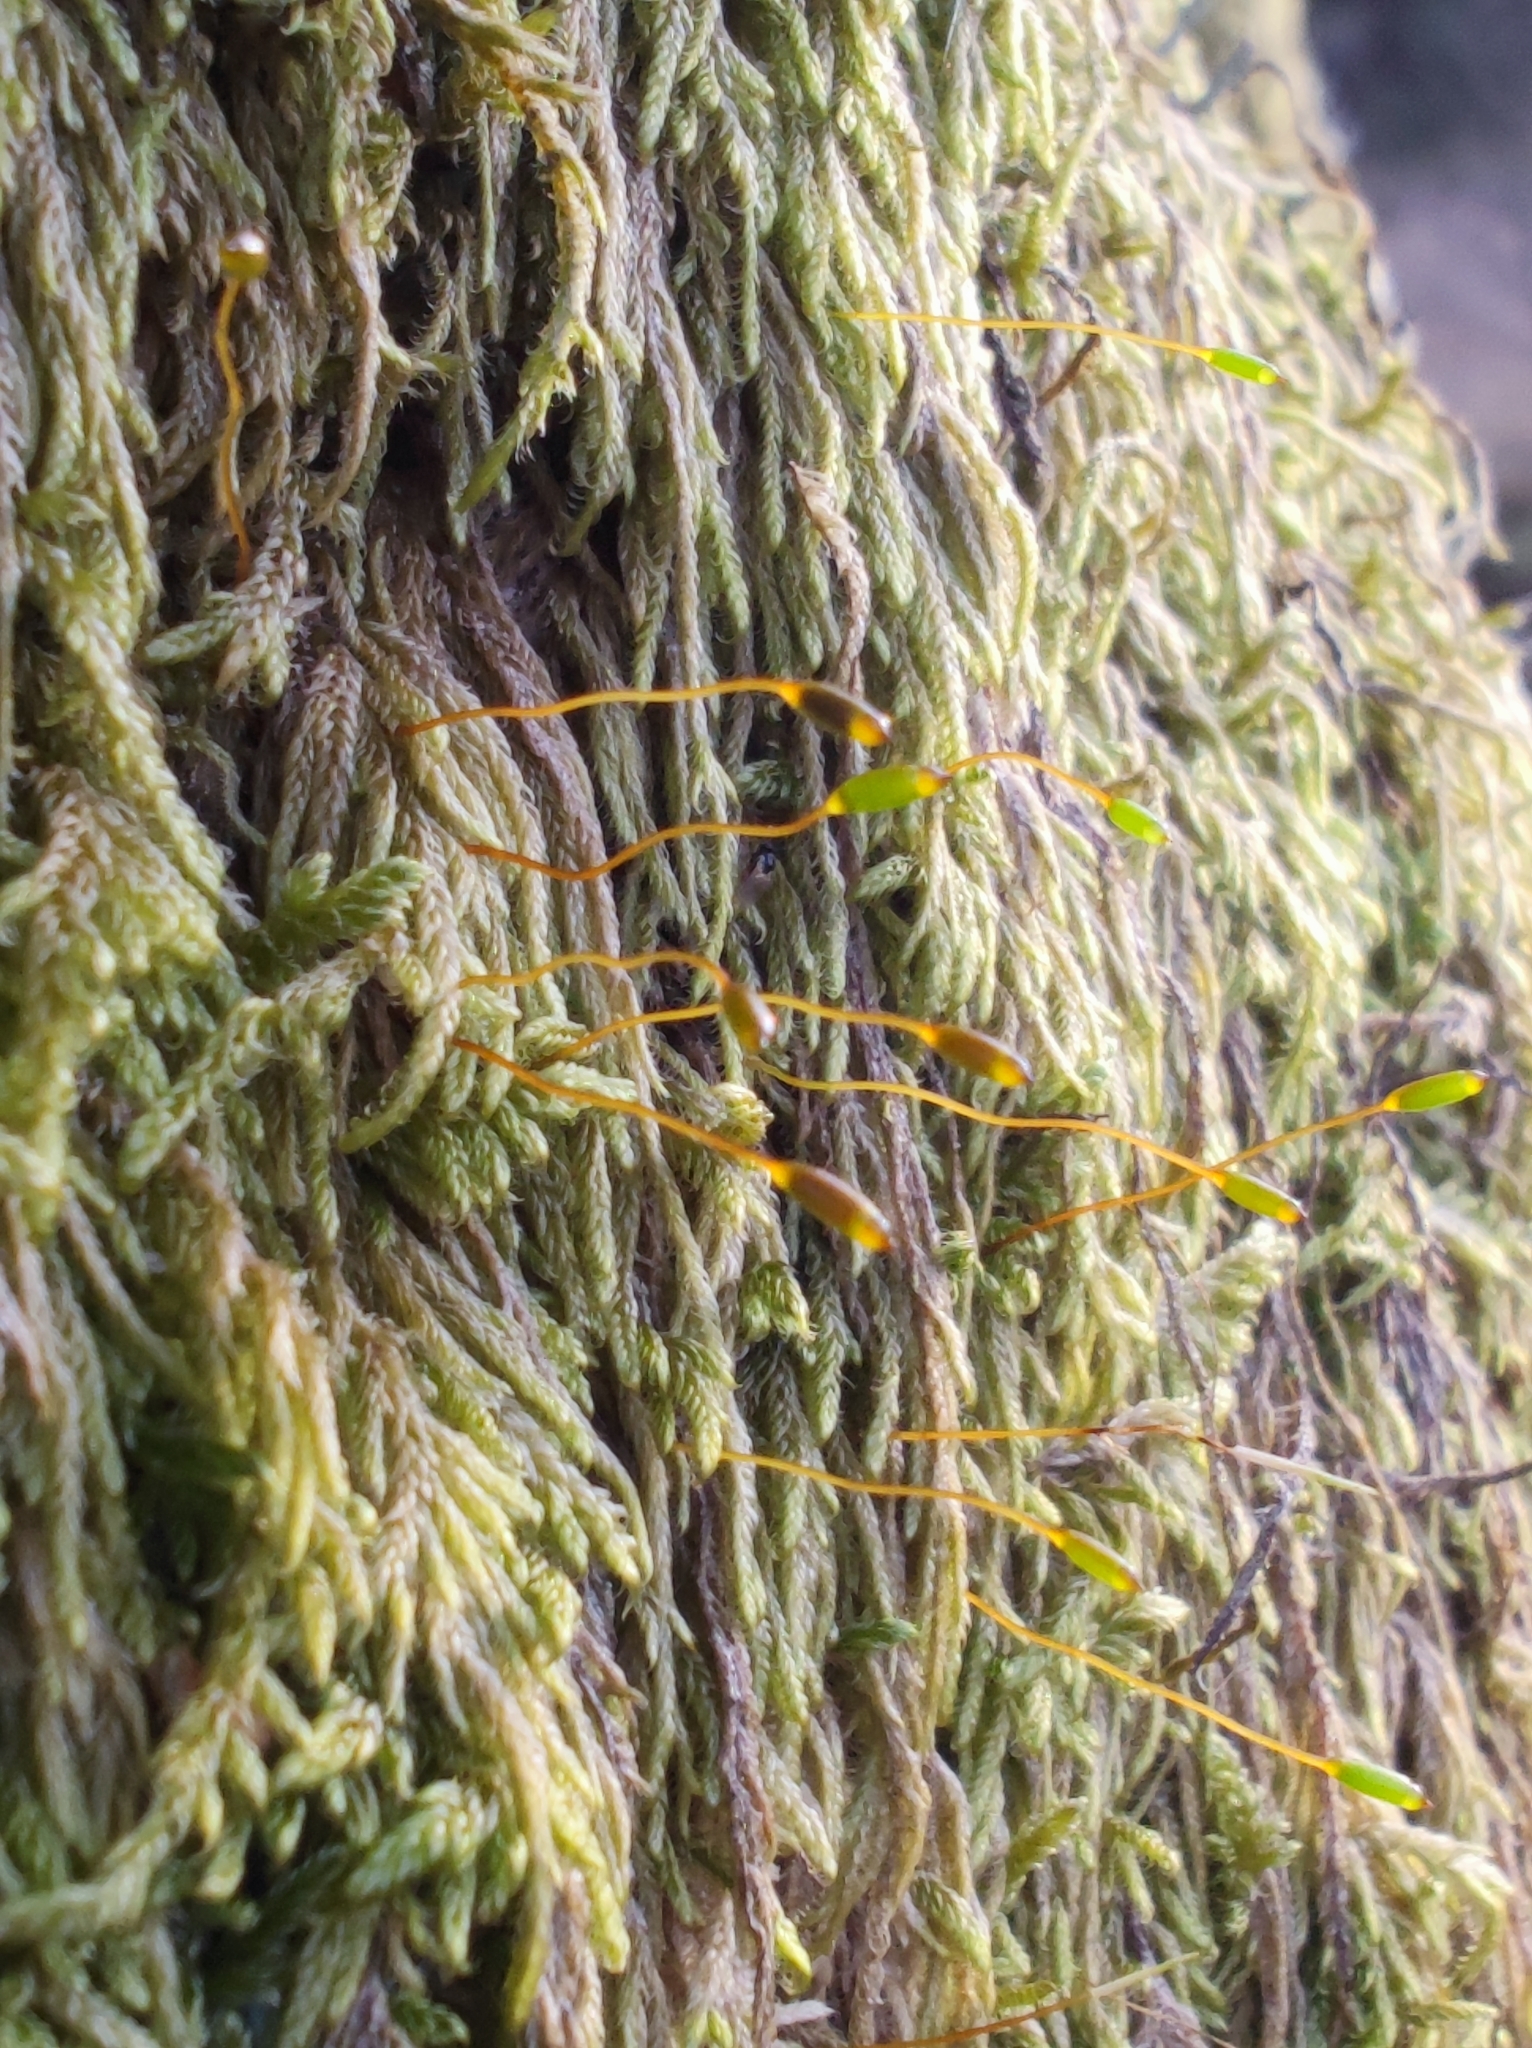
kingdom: Plantae
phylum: Bryophyta
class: Bryopsida
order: Hypnales
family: Hypnaceae
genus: Hypnum
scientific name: Hypnum andoi
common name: Ando's plait moss
